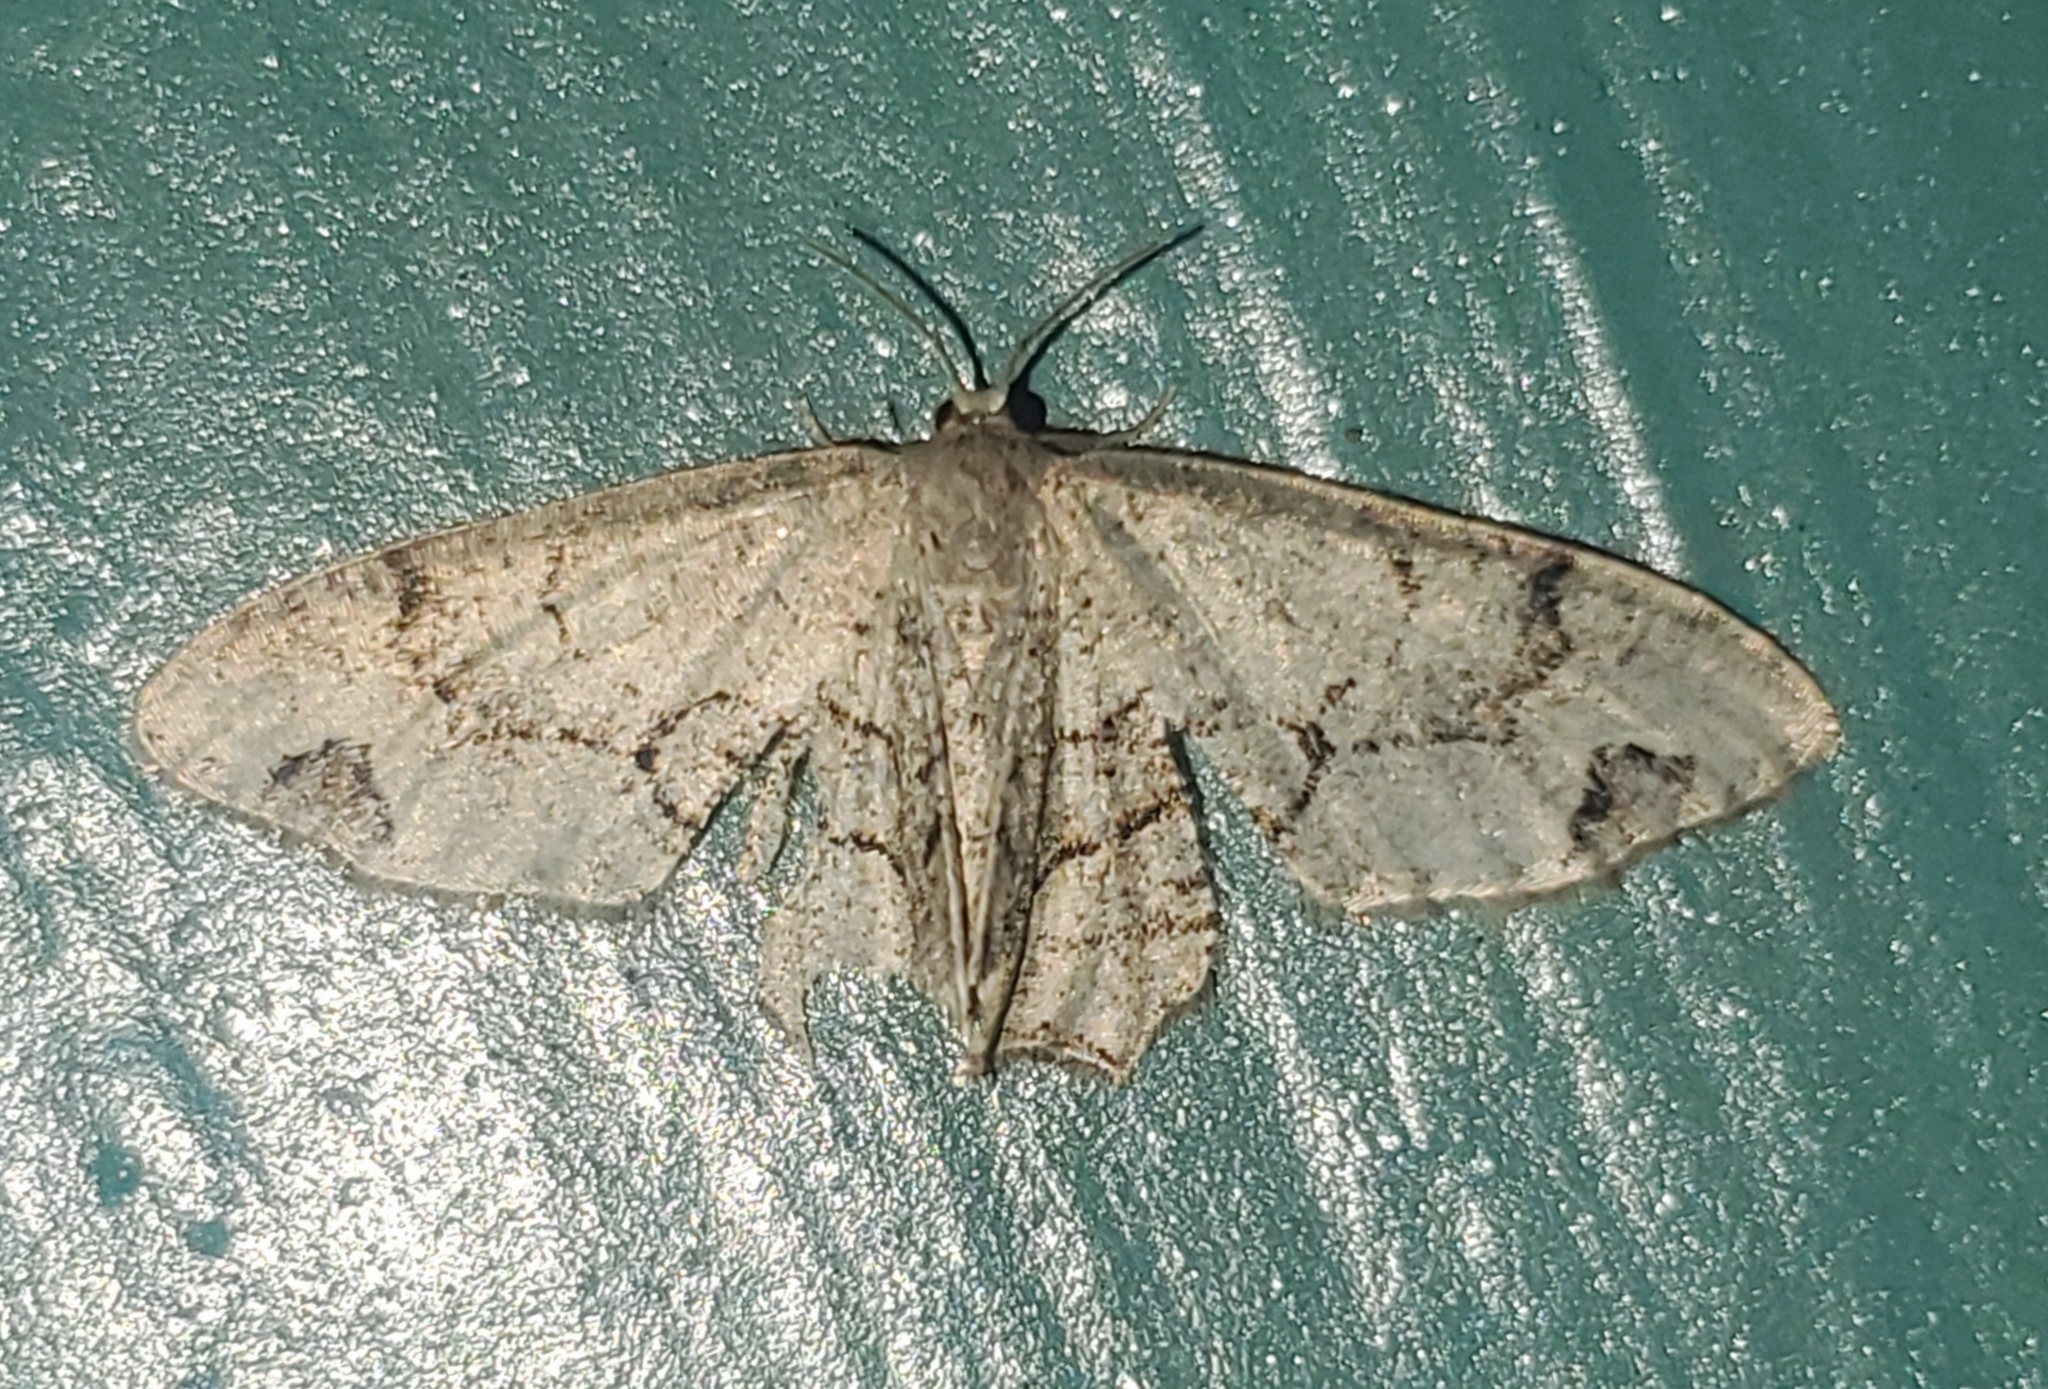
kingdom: Animalia
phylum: Arthropoda
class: Insecta
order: Lepidoptera
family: Uraniidae
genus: Epiplema
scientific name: Epiplema Callizzia amorata
